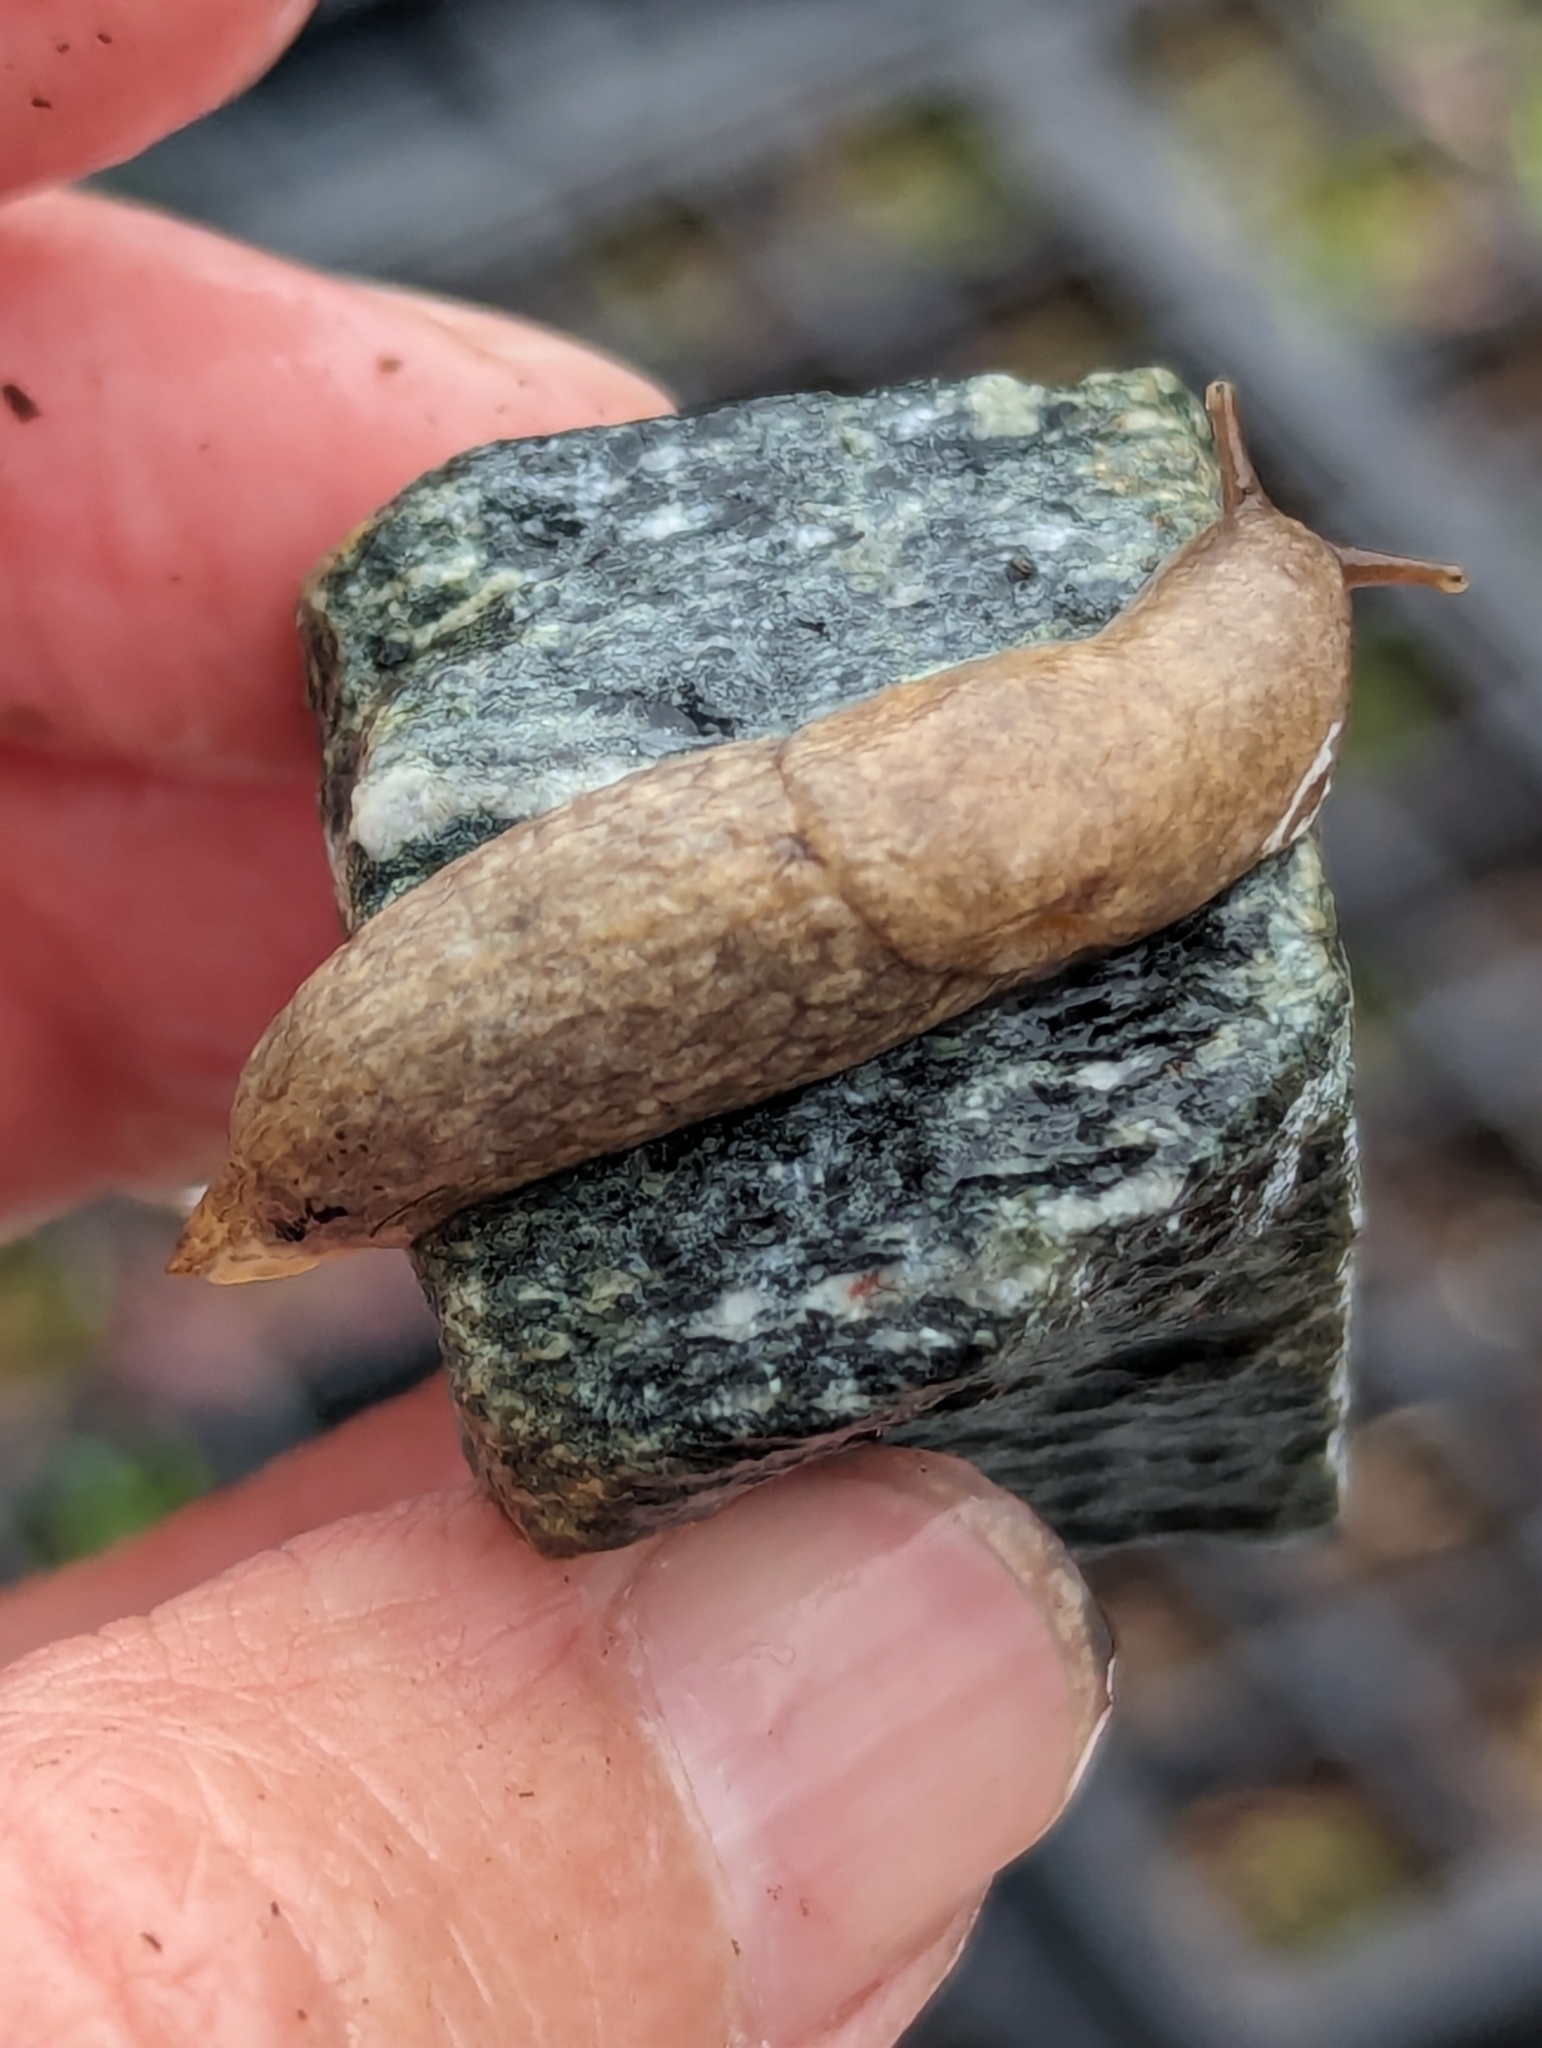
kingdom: Animalia
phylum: Mollusca
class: Gastropoda
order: Stylommatophora
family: Agriolimacidae
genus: Deroceras
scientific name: Deroceras reticulatum
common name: Gray field slug
